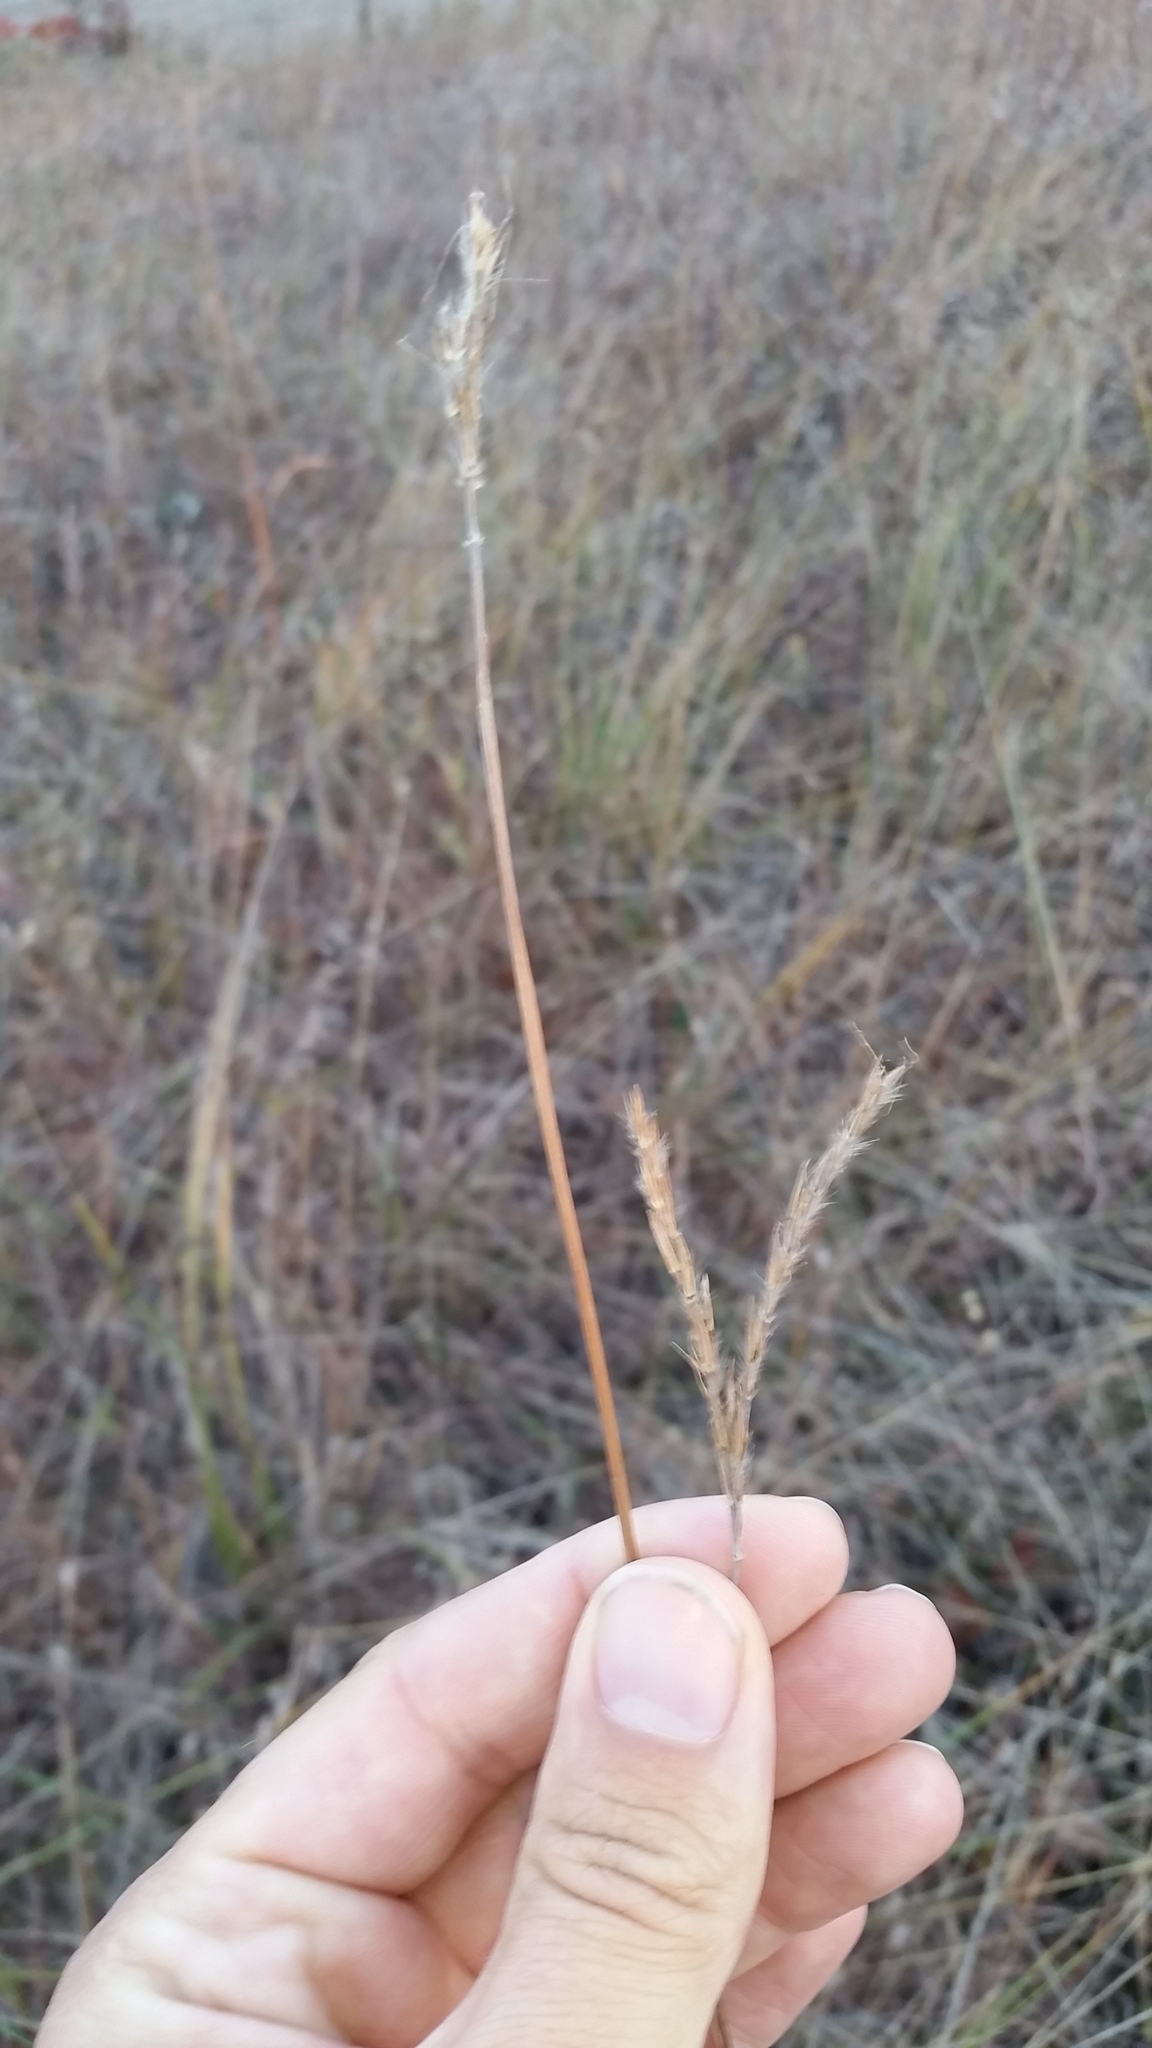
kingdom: Plantae
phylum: Tracheophyta
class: Liliopsida
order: Poales
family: Poaceae
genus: Andropogon
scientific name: Andropogon gerardi
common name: Big bluestem
